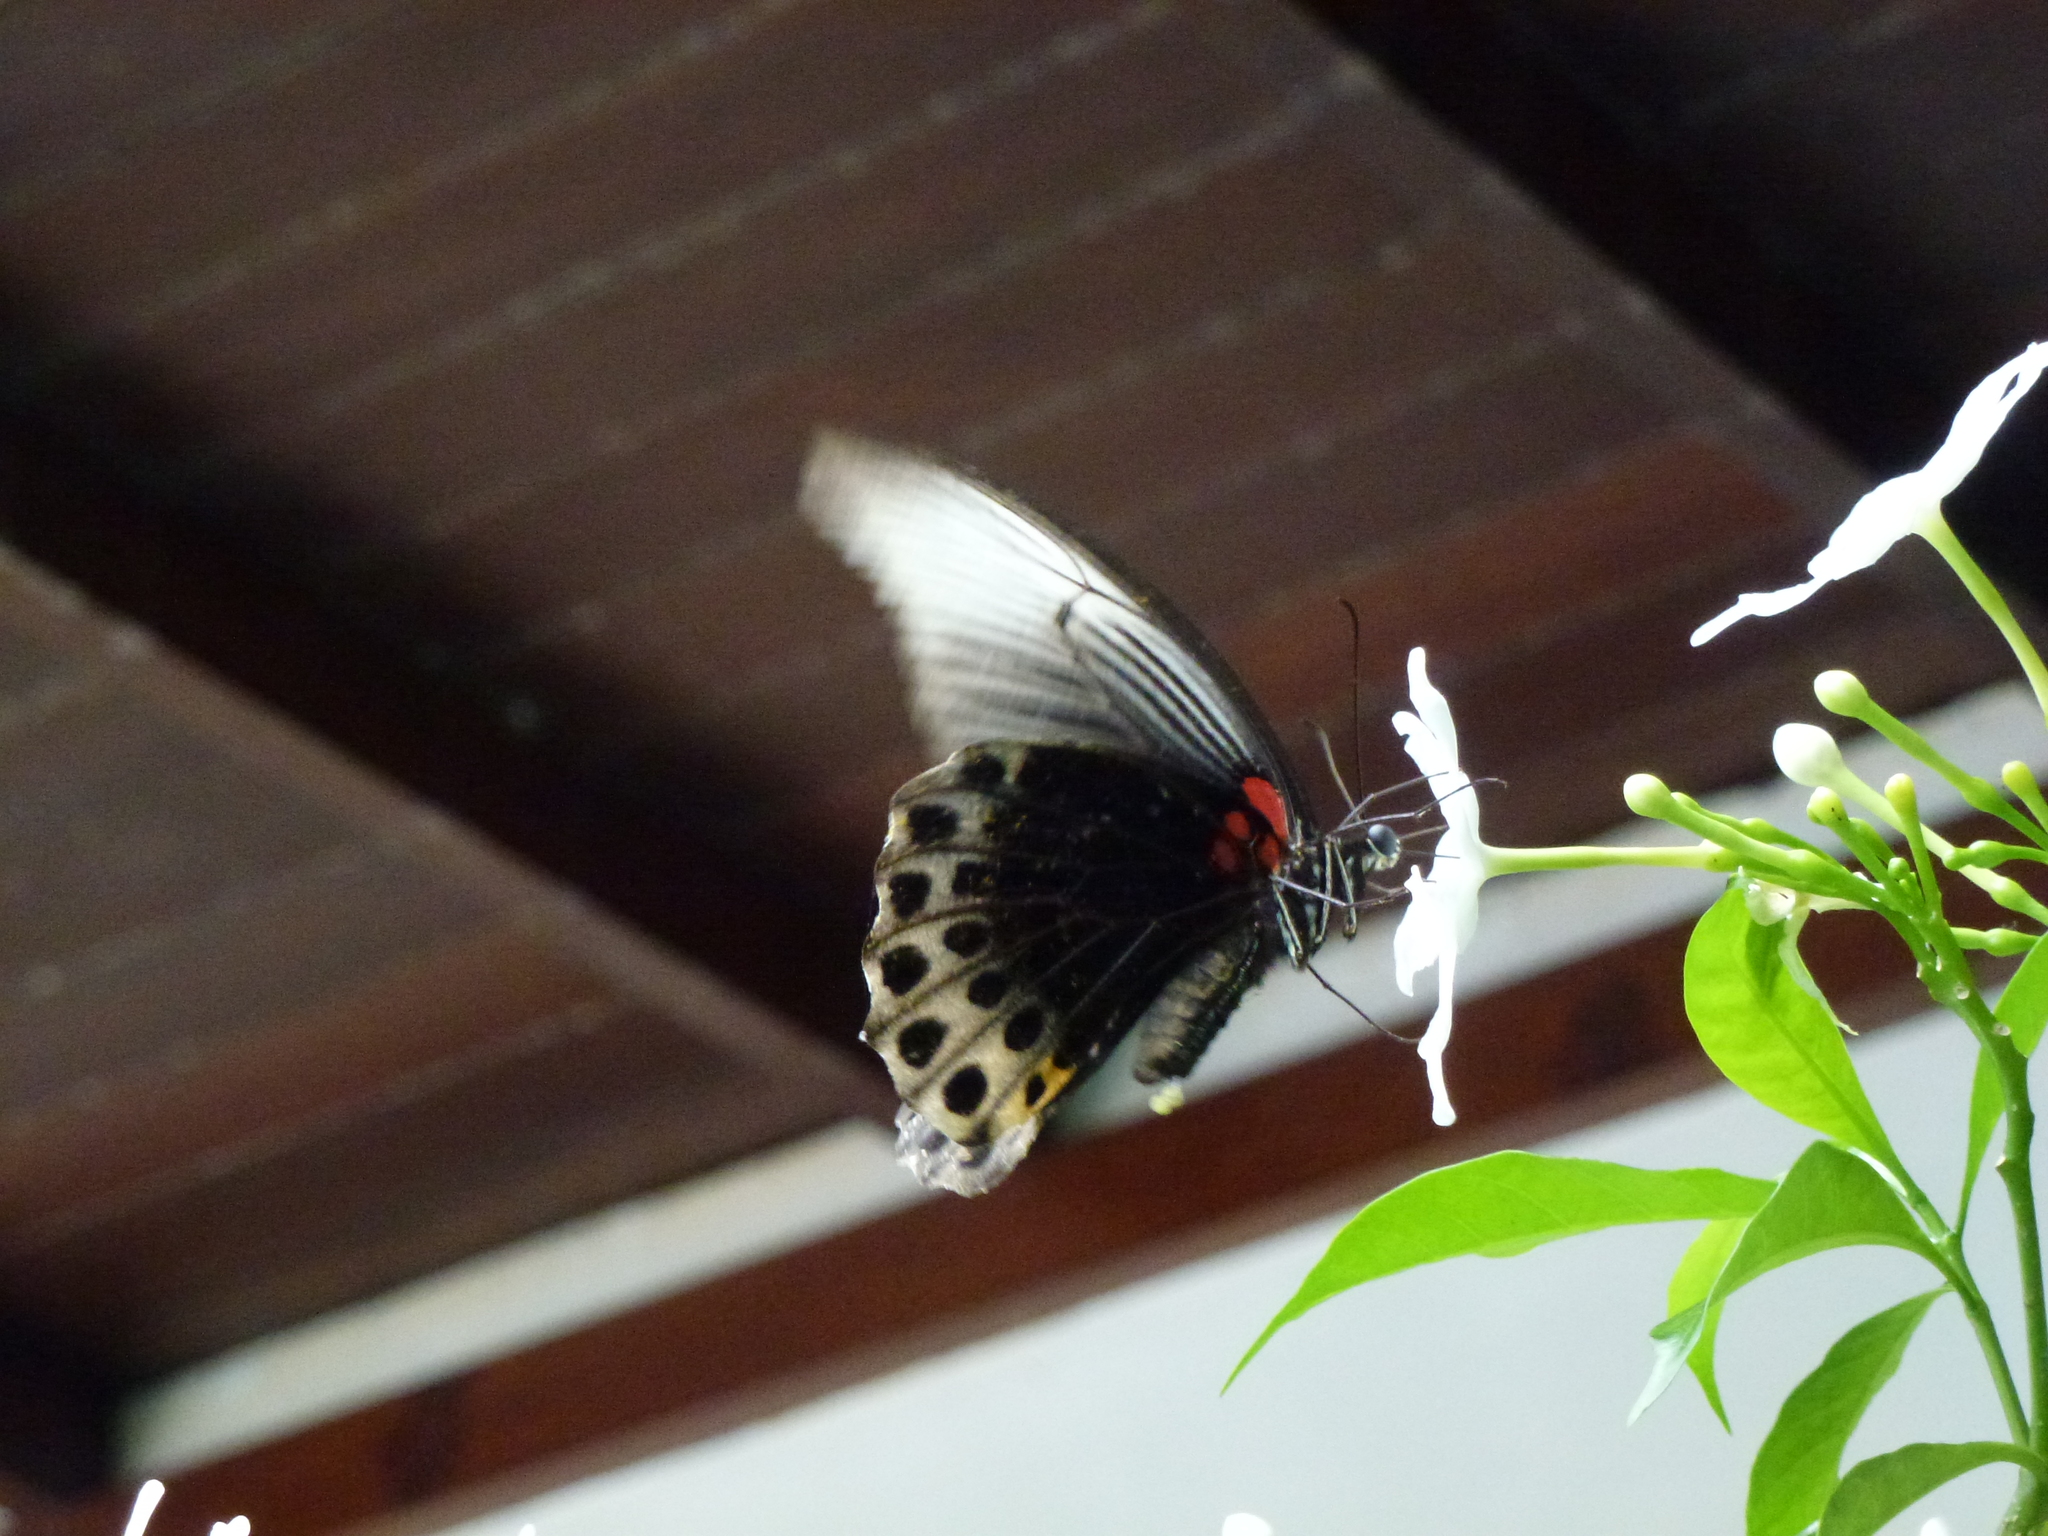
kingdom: Animalia
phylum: Arthropoda
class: Insecta
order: Lepidoptera
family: Papilionidae
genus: Papilio
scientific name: Papilio memnon
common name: Great mormon
